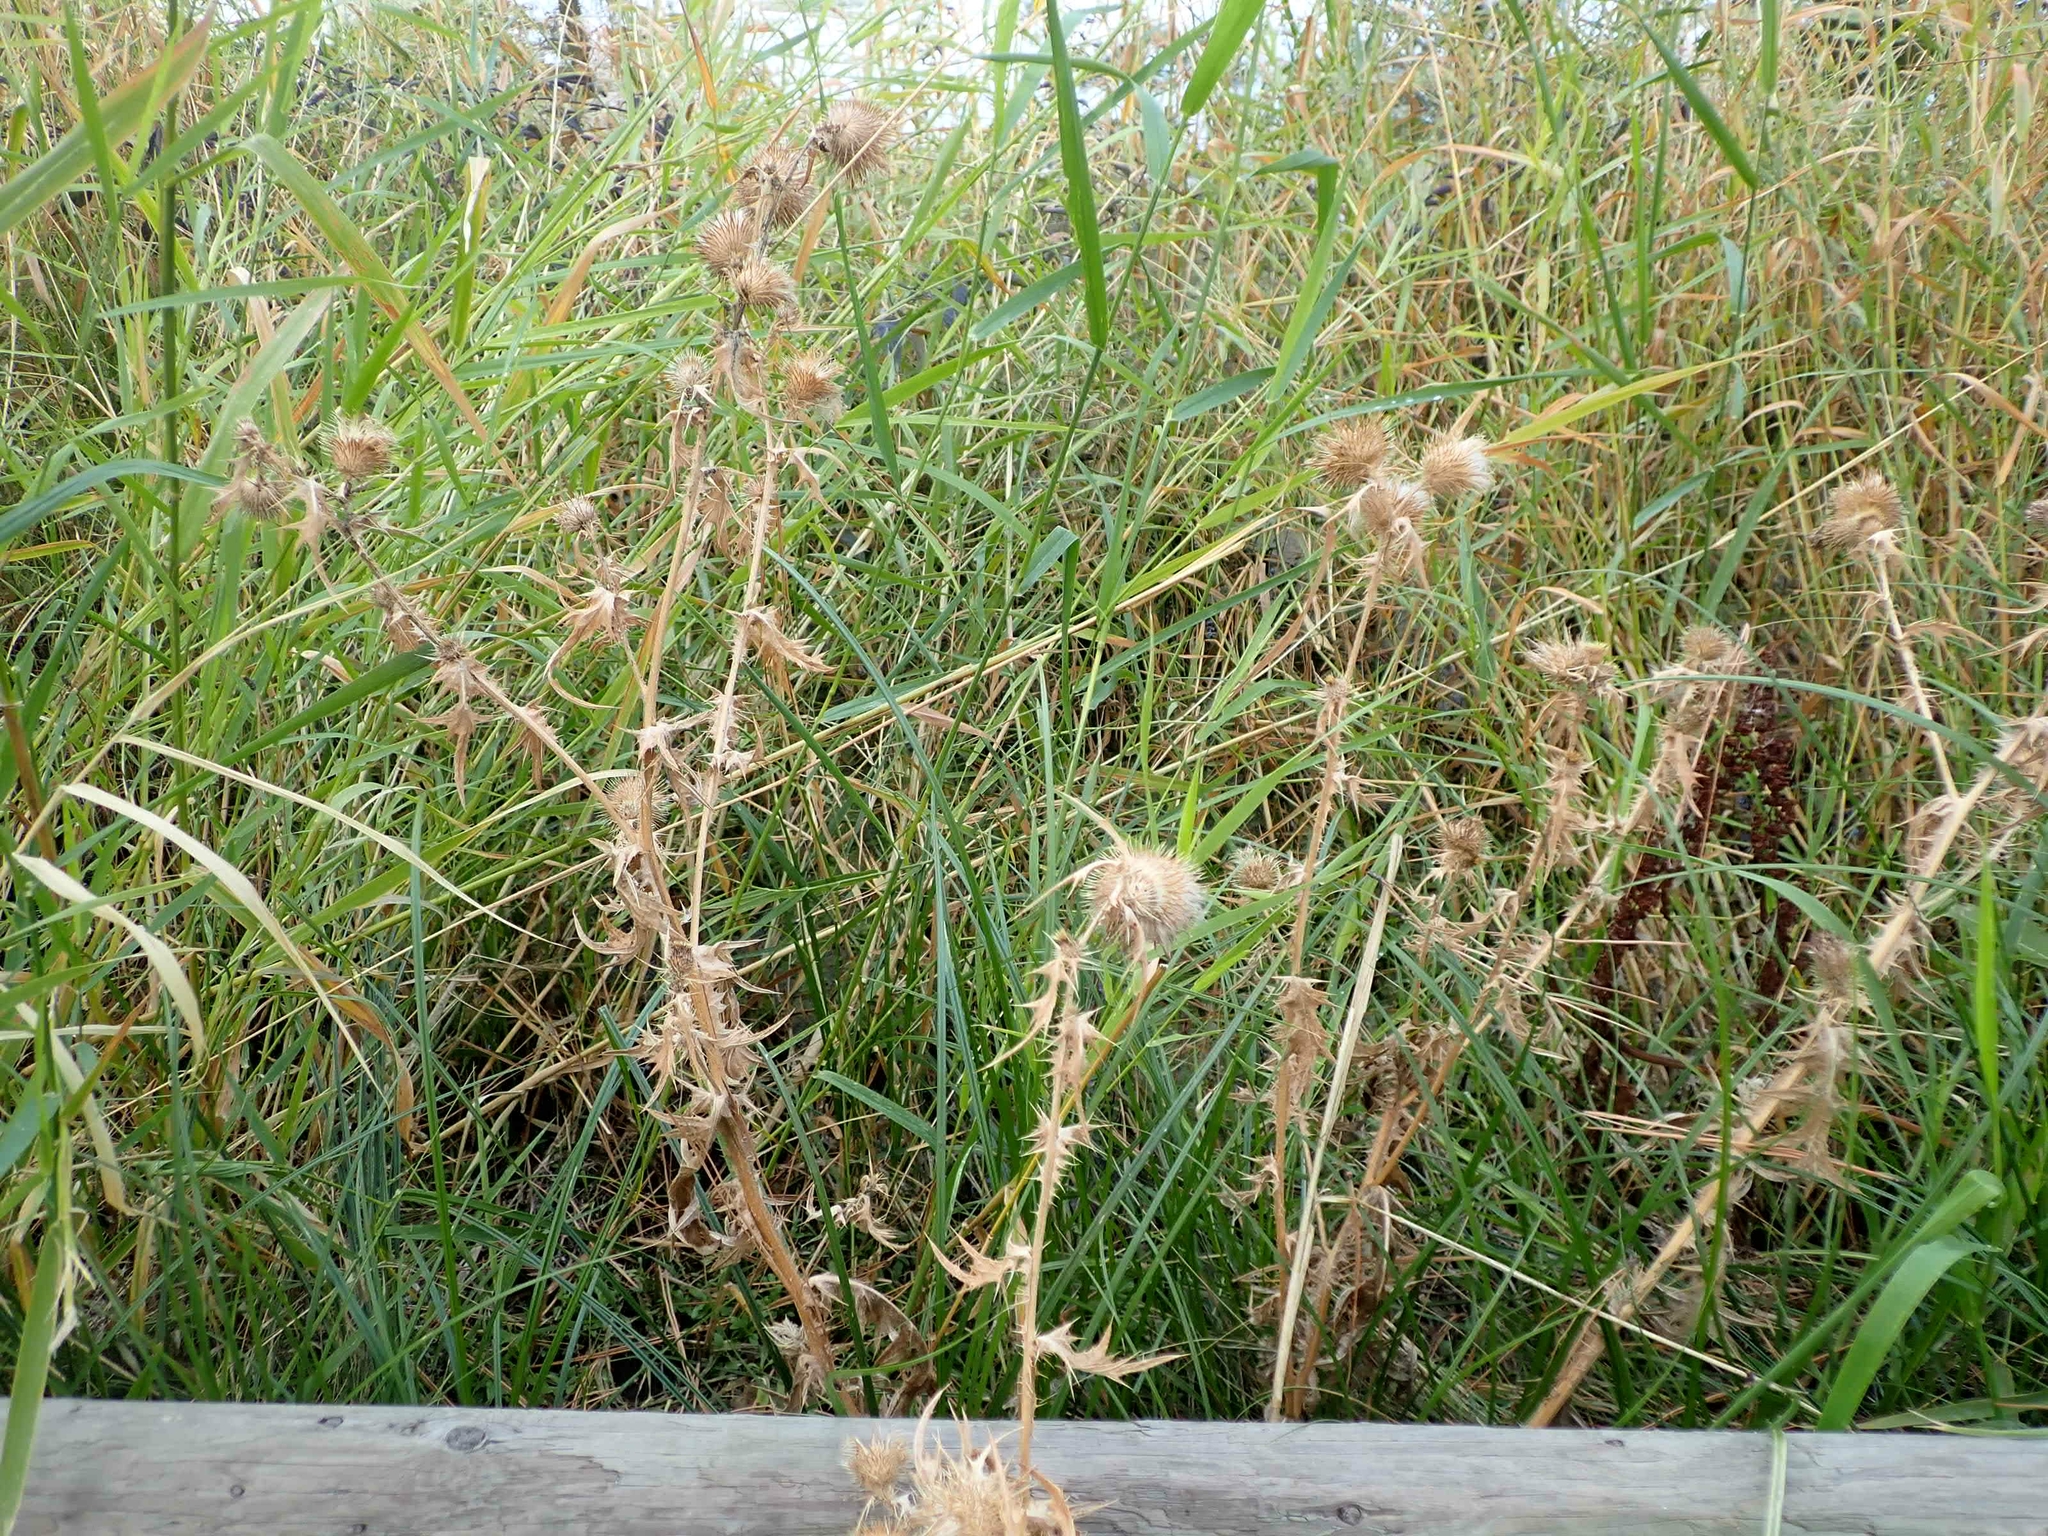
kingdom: Plantae
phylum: Tracheophyta
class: Magnoliopsida
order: Asterales
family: Asteraceae
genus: Cirsium
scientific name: Cirsium vulgare
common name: Bull thistle
